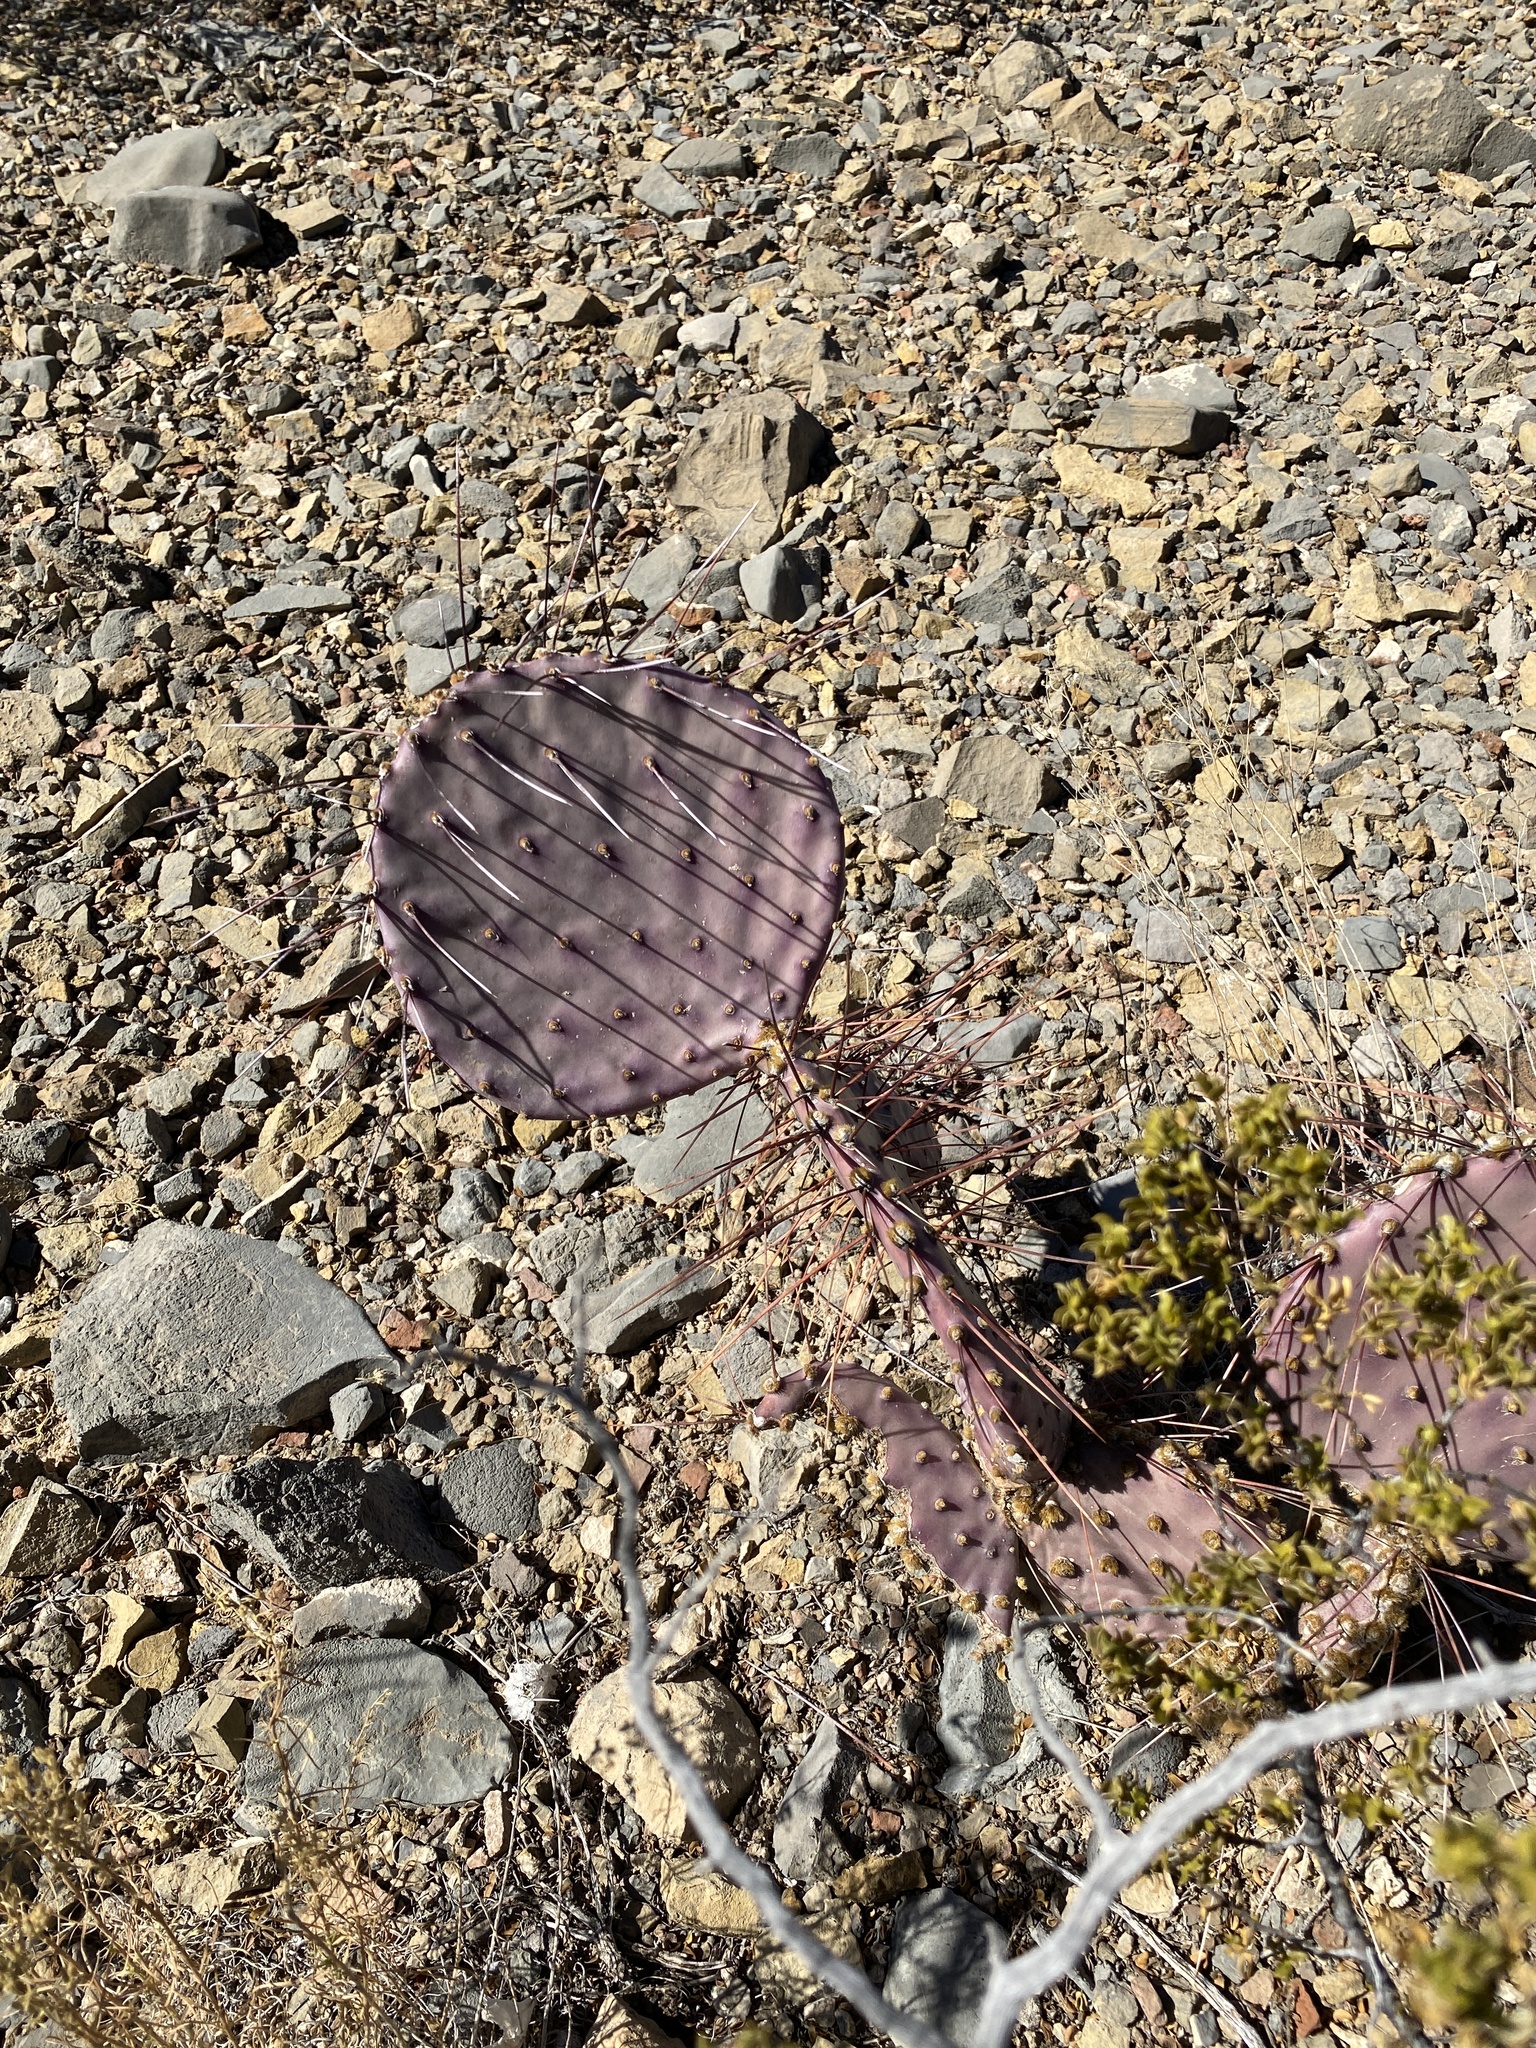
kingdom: Plantae
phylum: Tracheophyta
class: Magnoliopsida
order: Caryophyllales
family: Cactaceae
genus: Opuntia
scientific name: Opuntia macrocentra
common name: Purple prickly-pear
